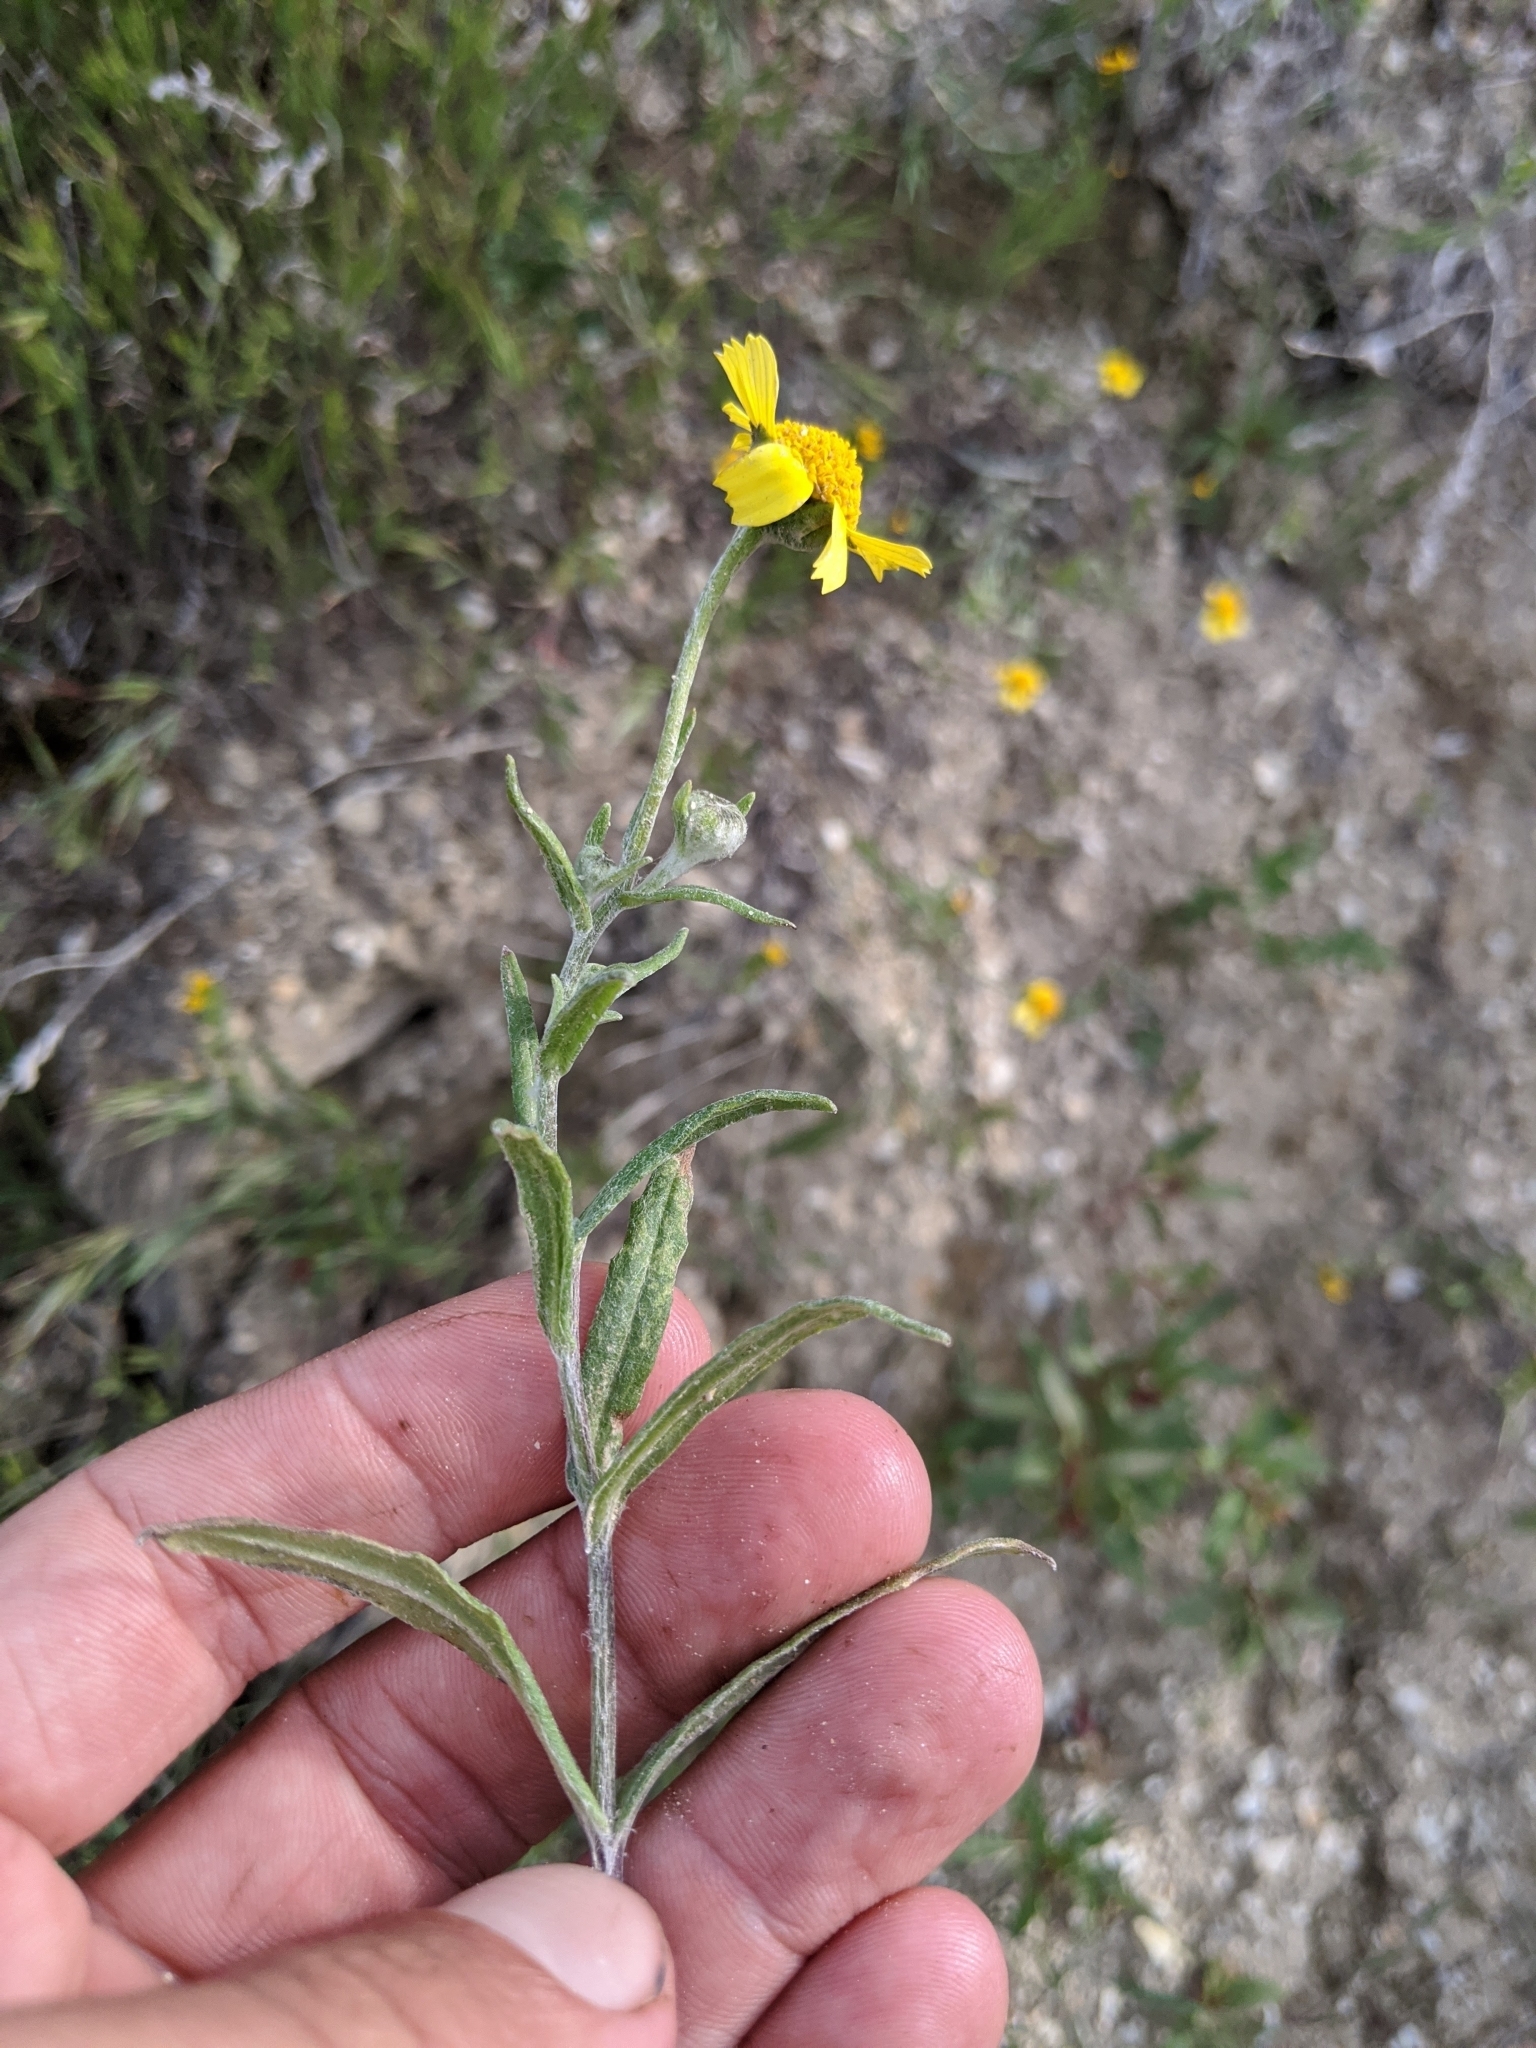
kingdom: Plantae
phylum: Tracheophyta
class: Magnoliopsida
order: Asterales
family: Asteraceae
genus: Monolopia
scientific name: Monolopia lanceolata
